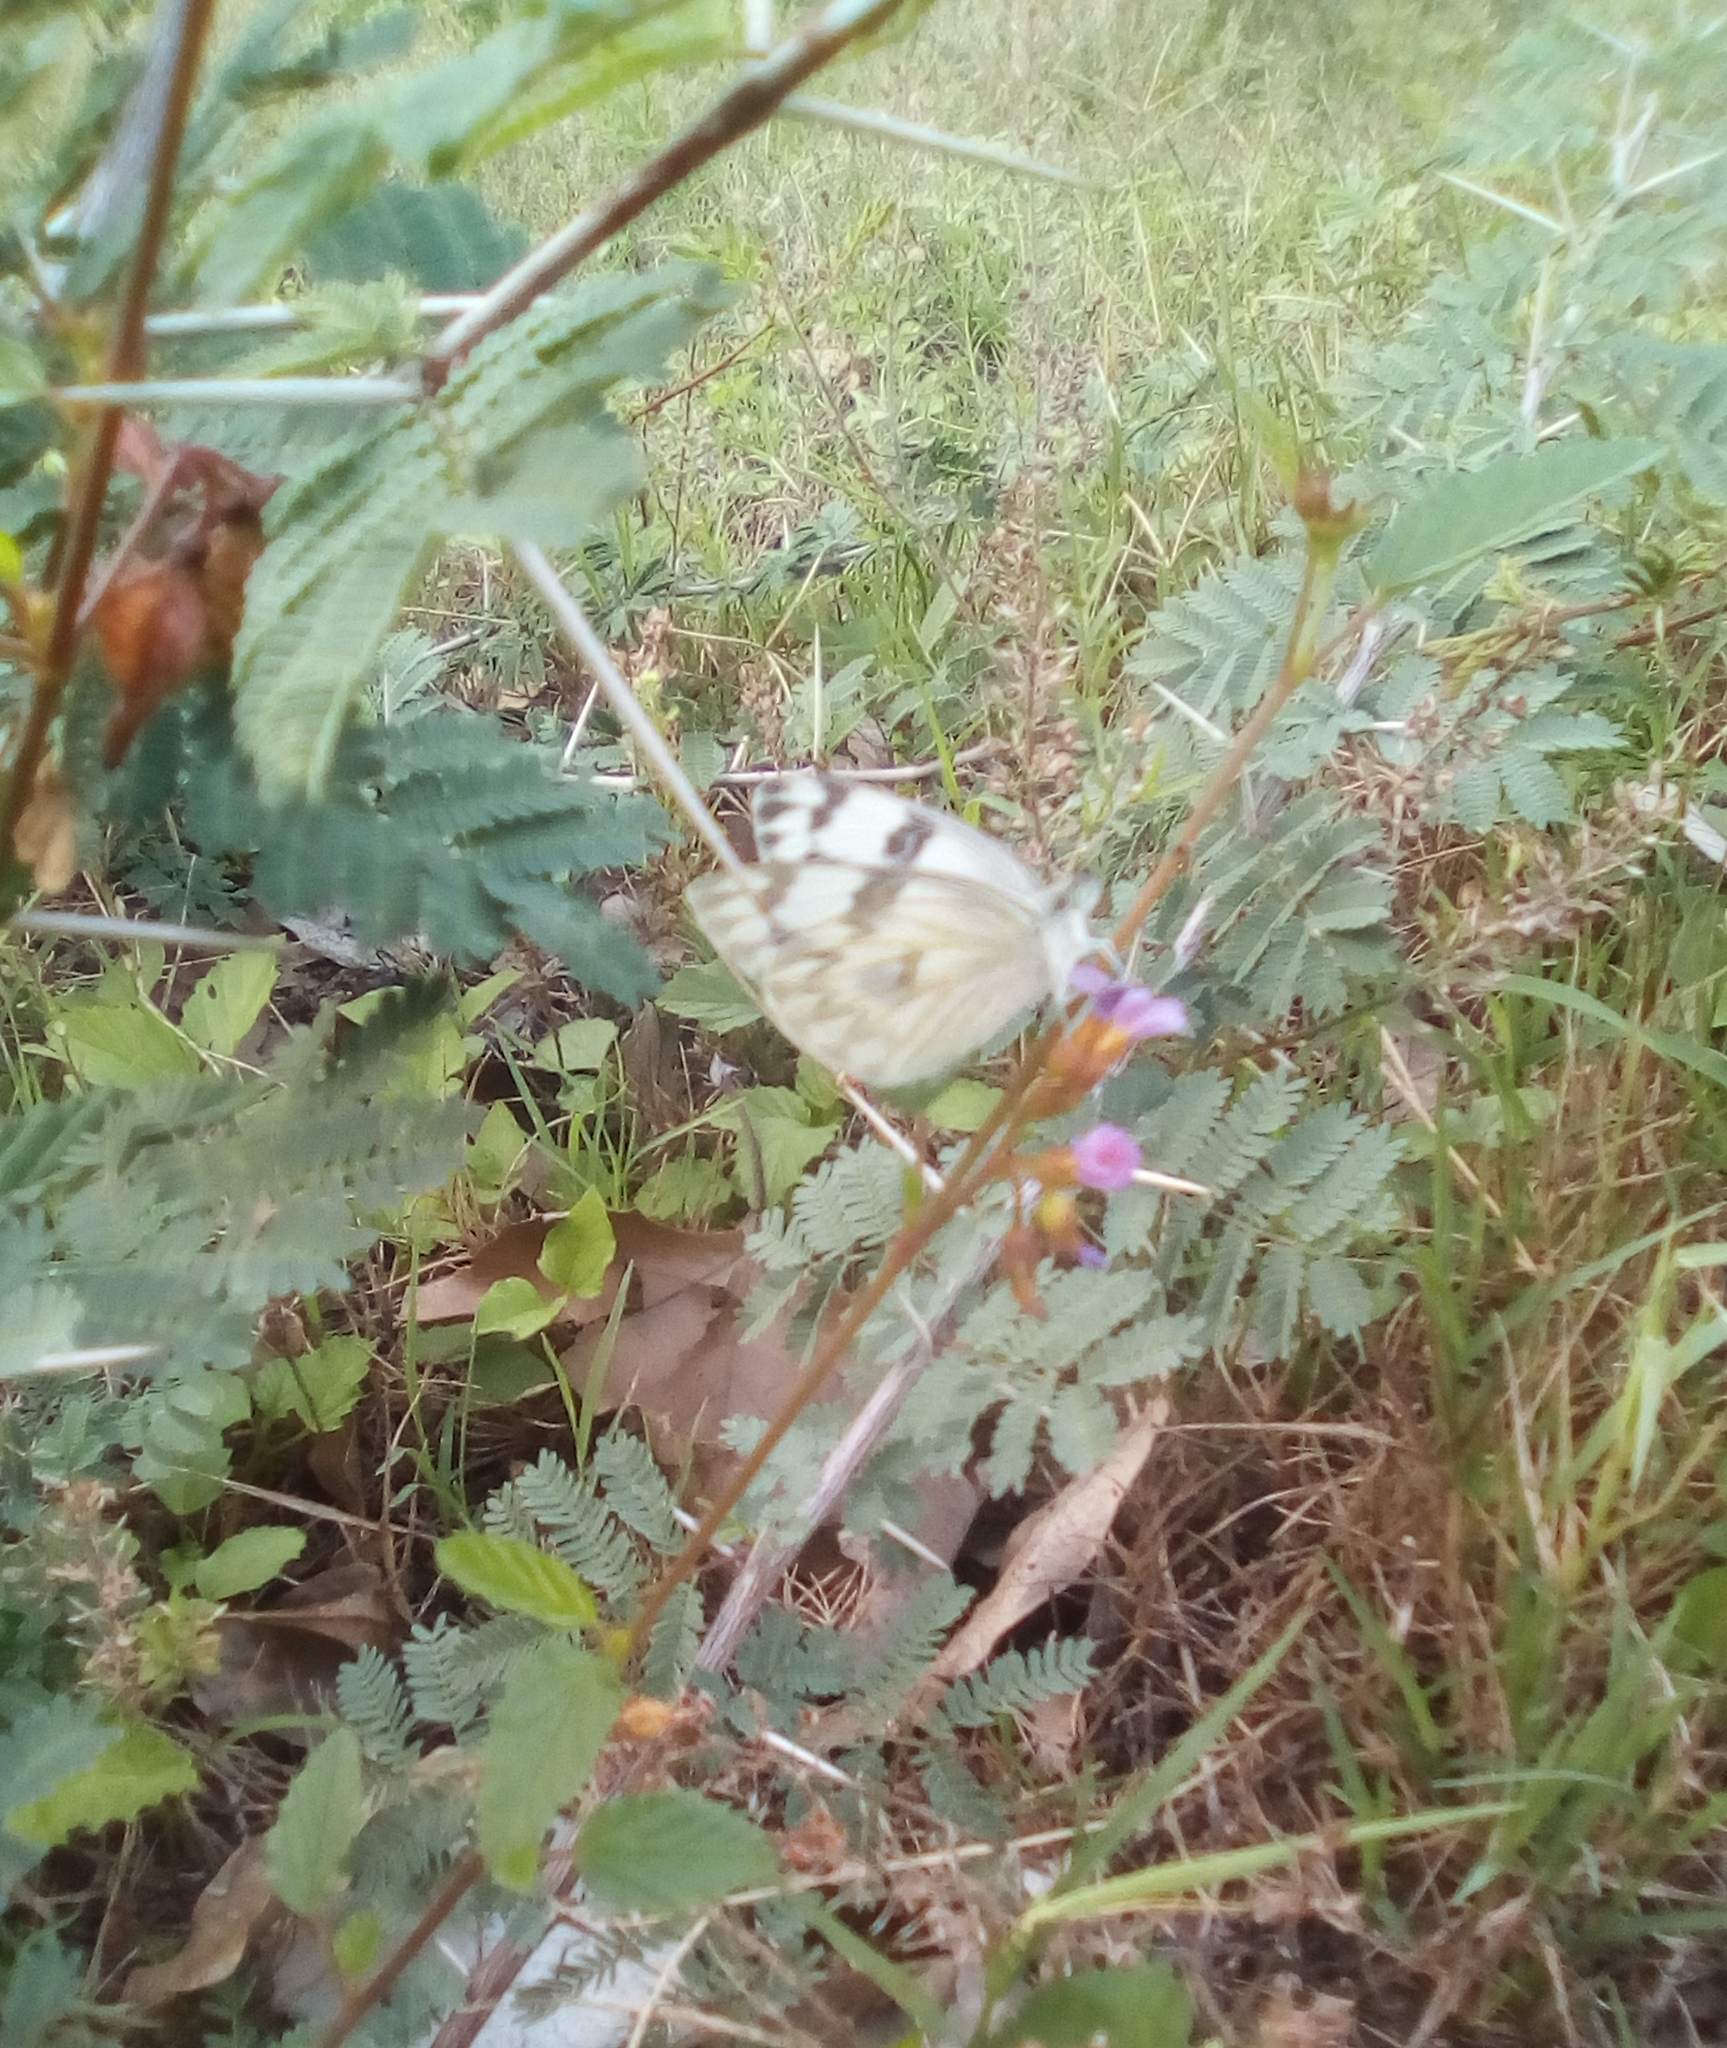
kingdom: Animalia
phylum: Arthropoda
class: Insecta
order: Lepidoptera
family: Pieridae
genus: Pontia
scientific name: Pontia protodice
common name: Checkered white
